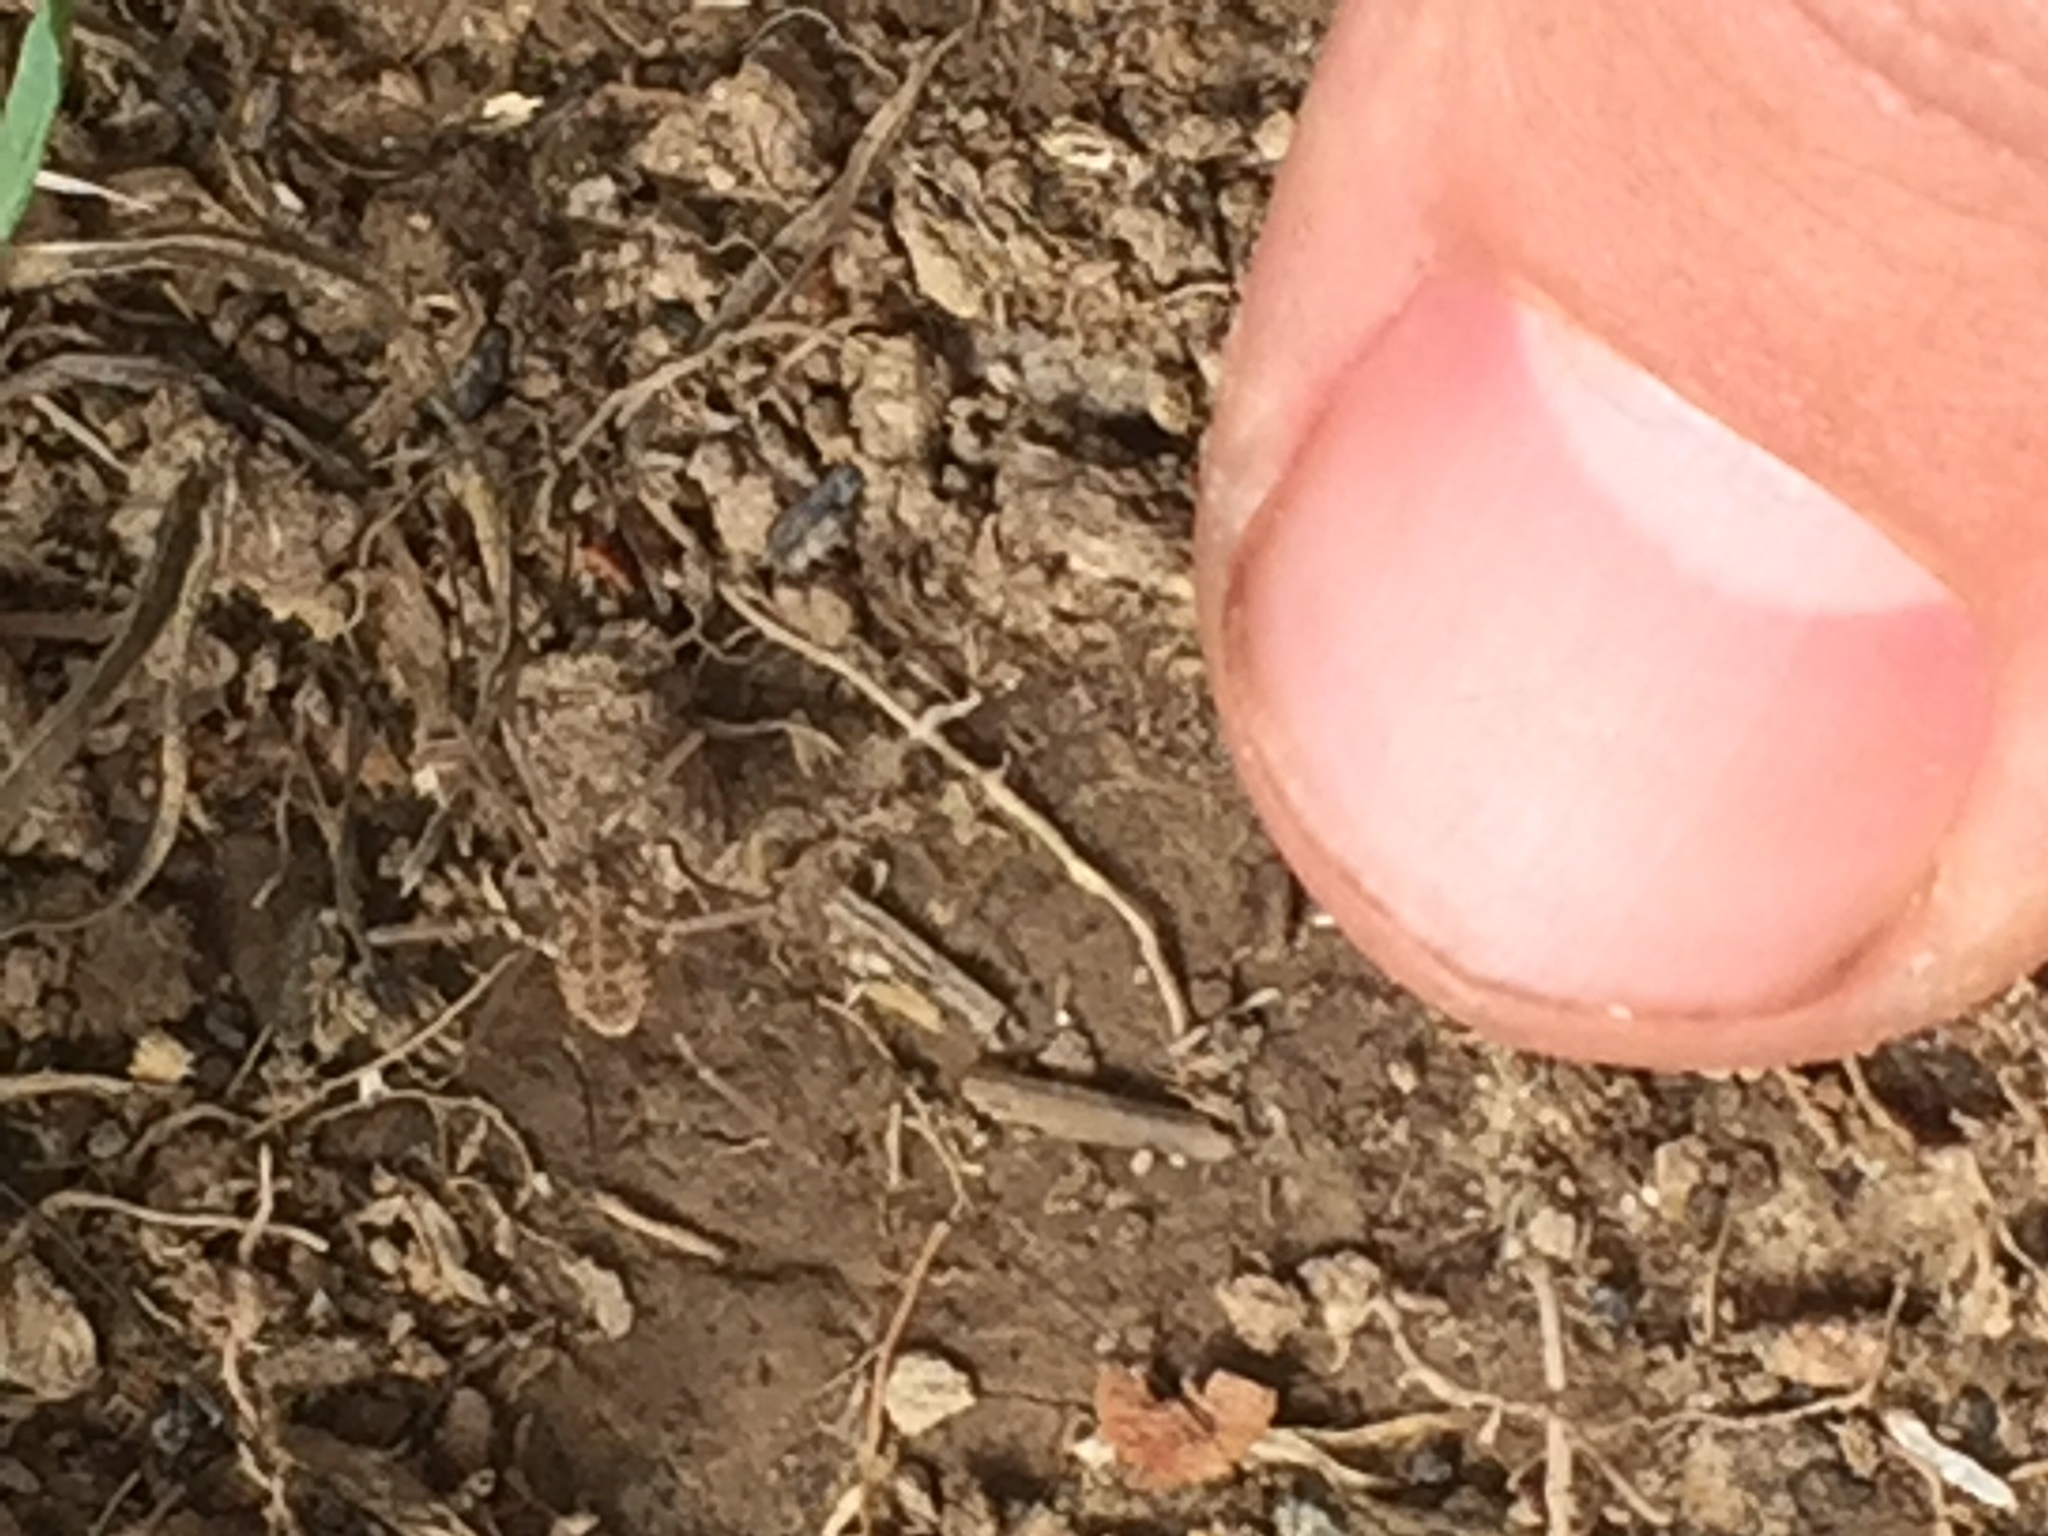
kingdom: Animalia
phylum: Arthropoda
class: Arachnida
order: Opiliones
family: Phalangiidae
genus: Phalangium
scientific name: Phalangium opilio
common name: Daddy longleg
